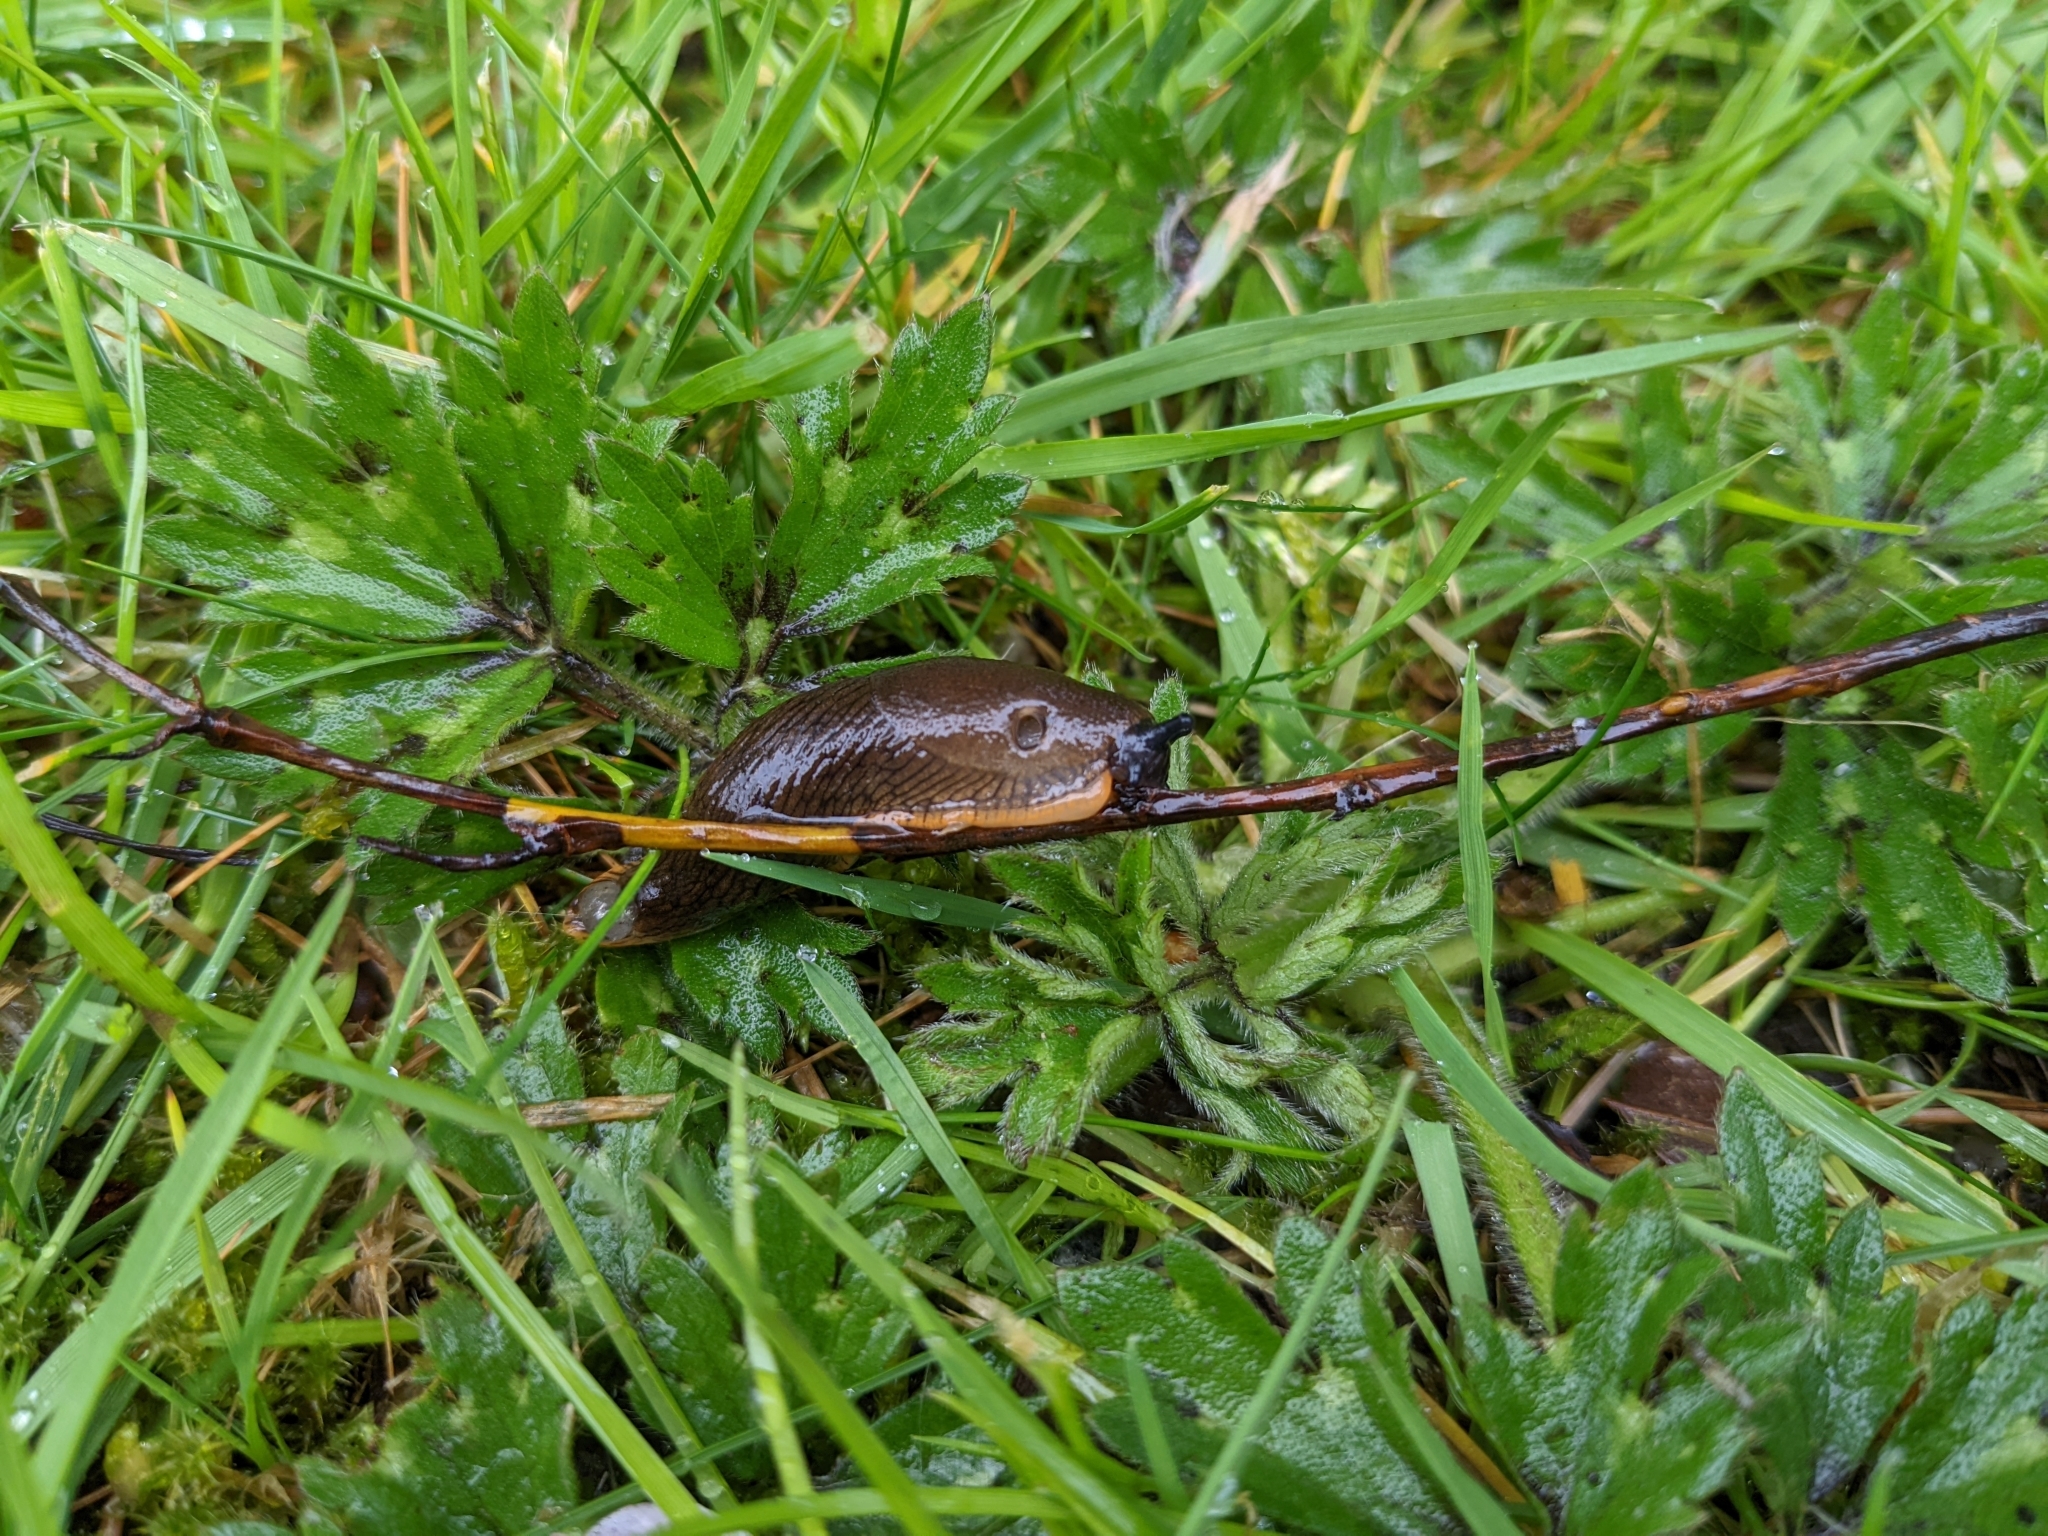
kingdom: Animalia
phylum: Mollusca
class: Gastropoda
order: Stylommatophora
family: Arionidae
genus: Arion
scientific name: Arion
